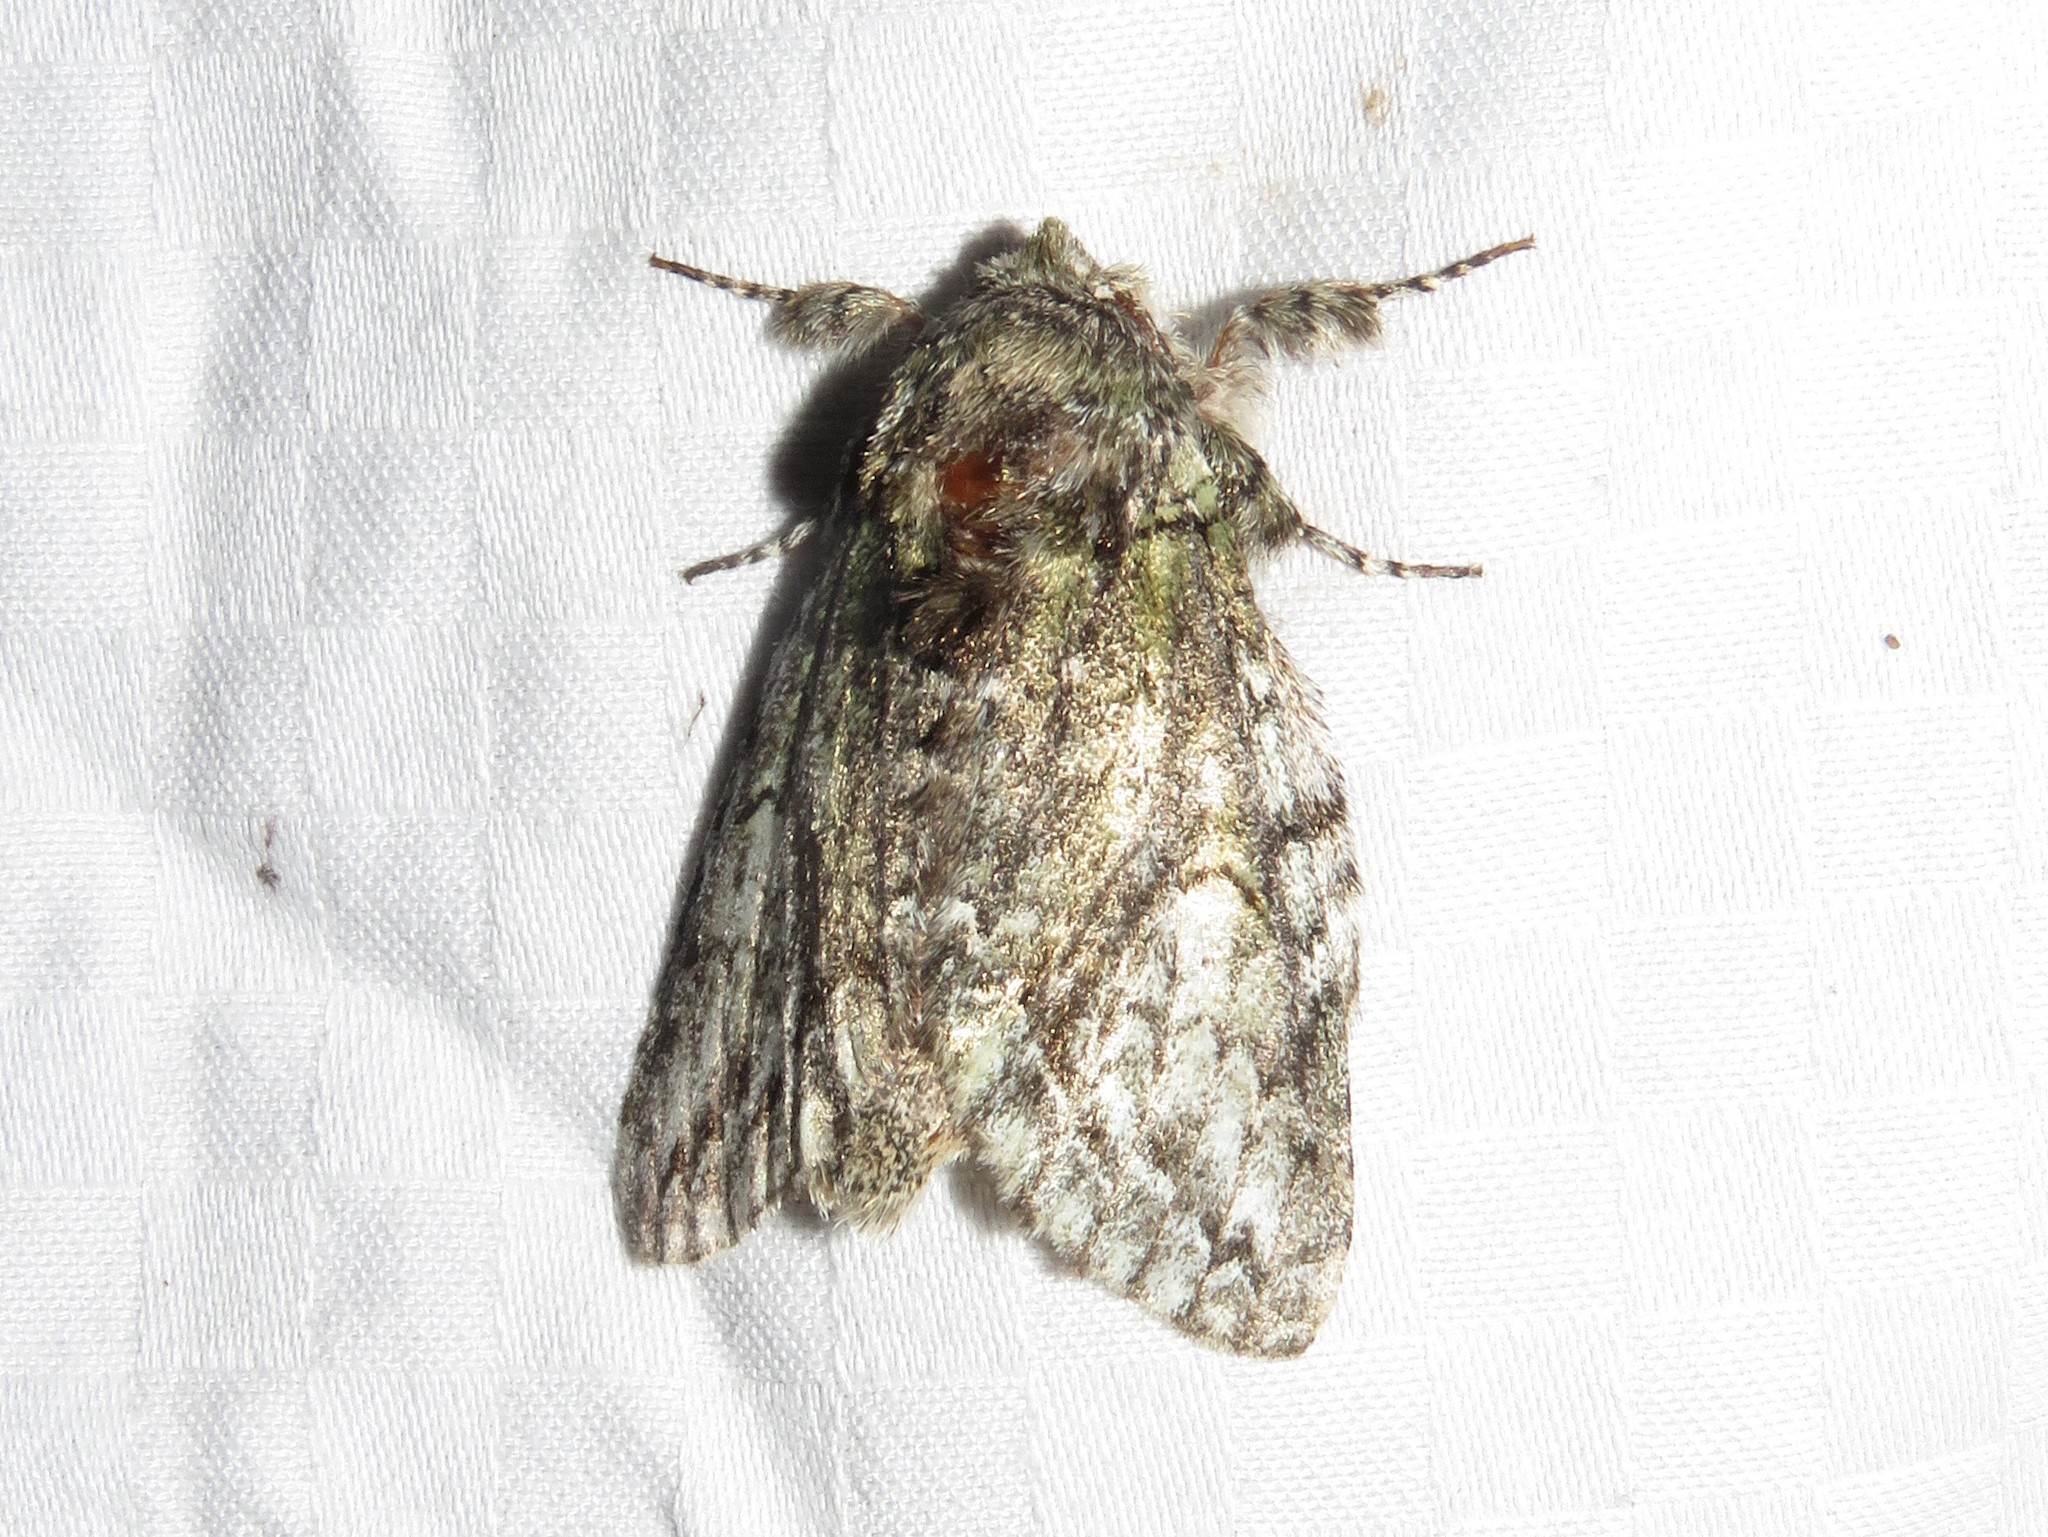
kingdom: Animalia
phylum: Arthropoda
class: Insecta
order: Lepidoptera
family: Notodontidae
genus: Heterocampa
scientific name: Heterocampa
